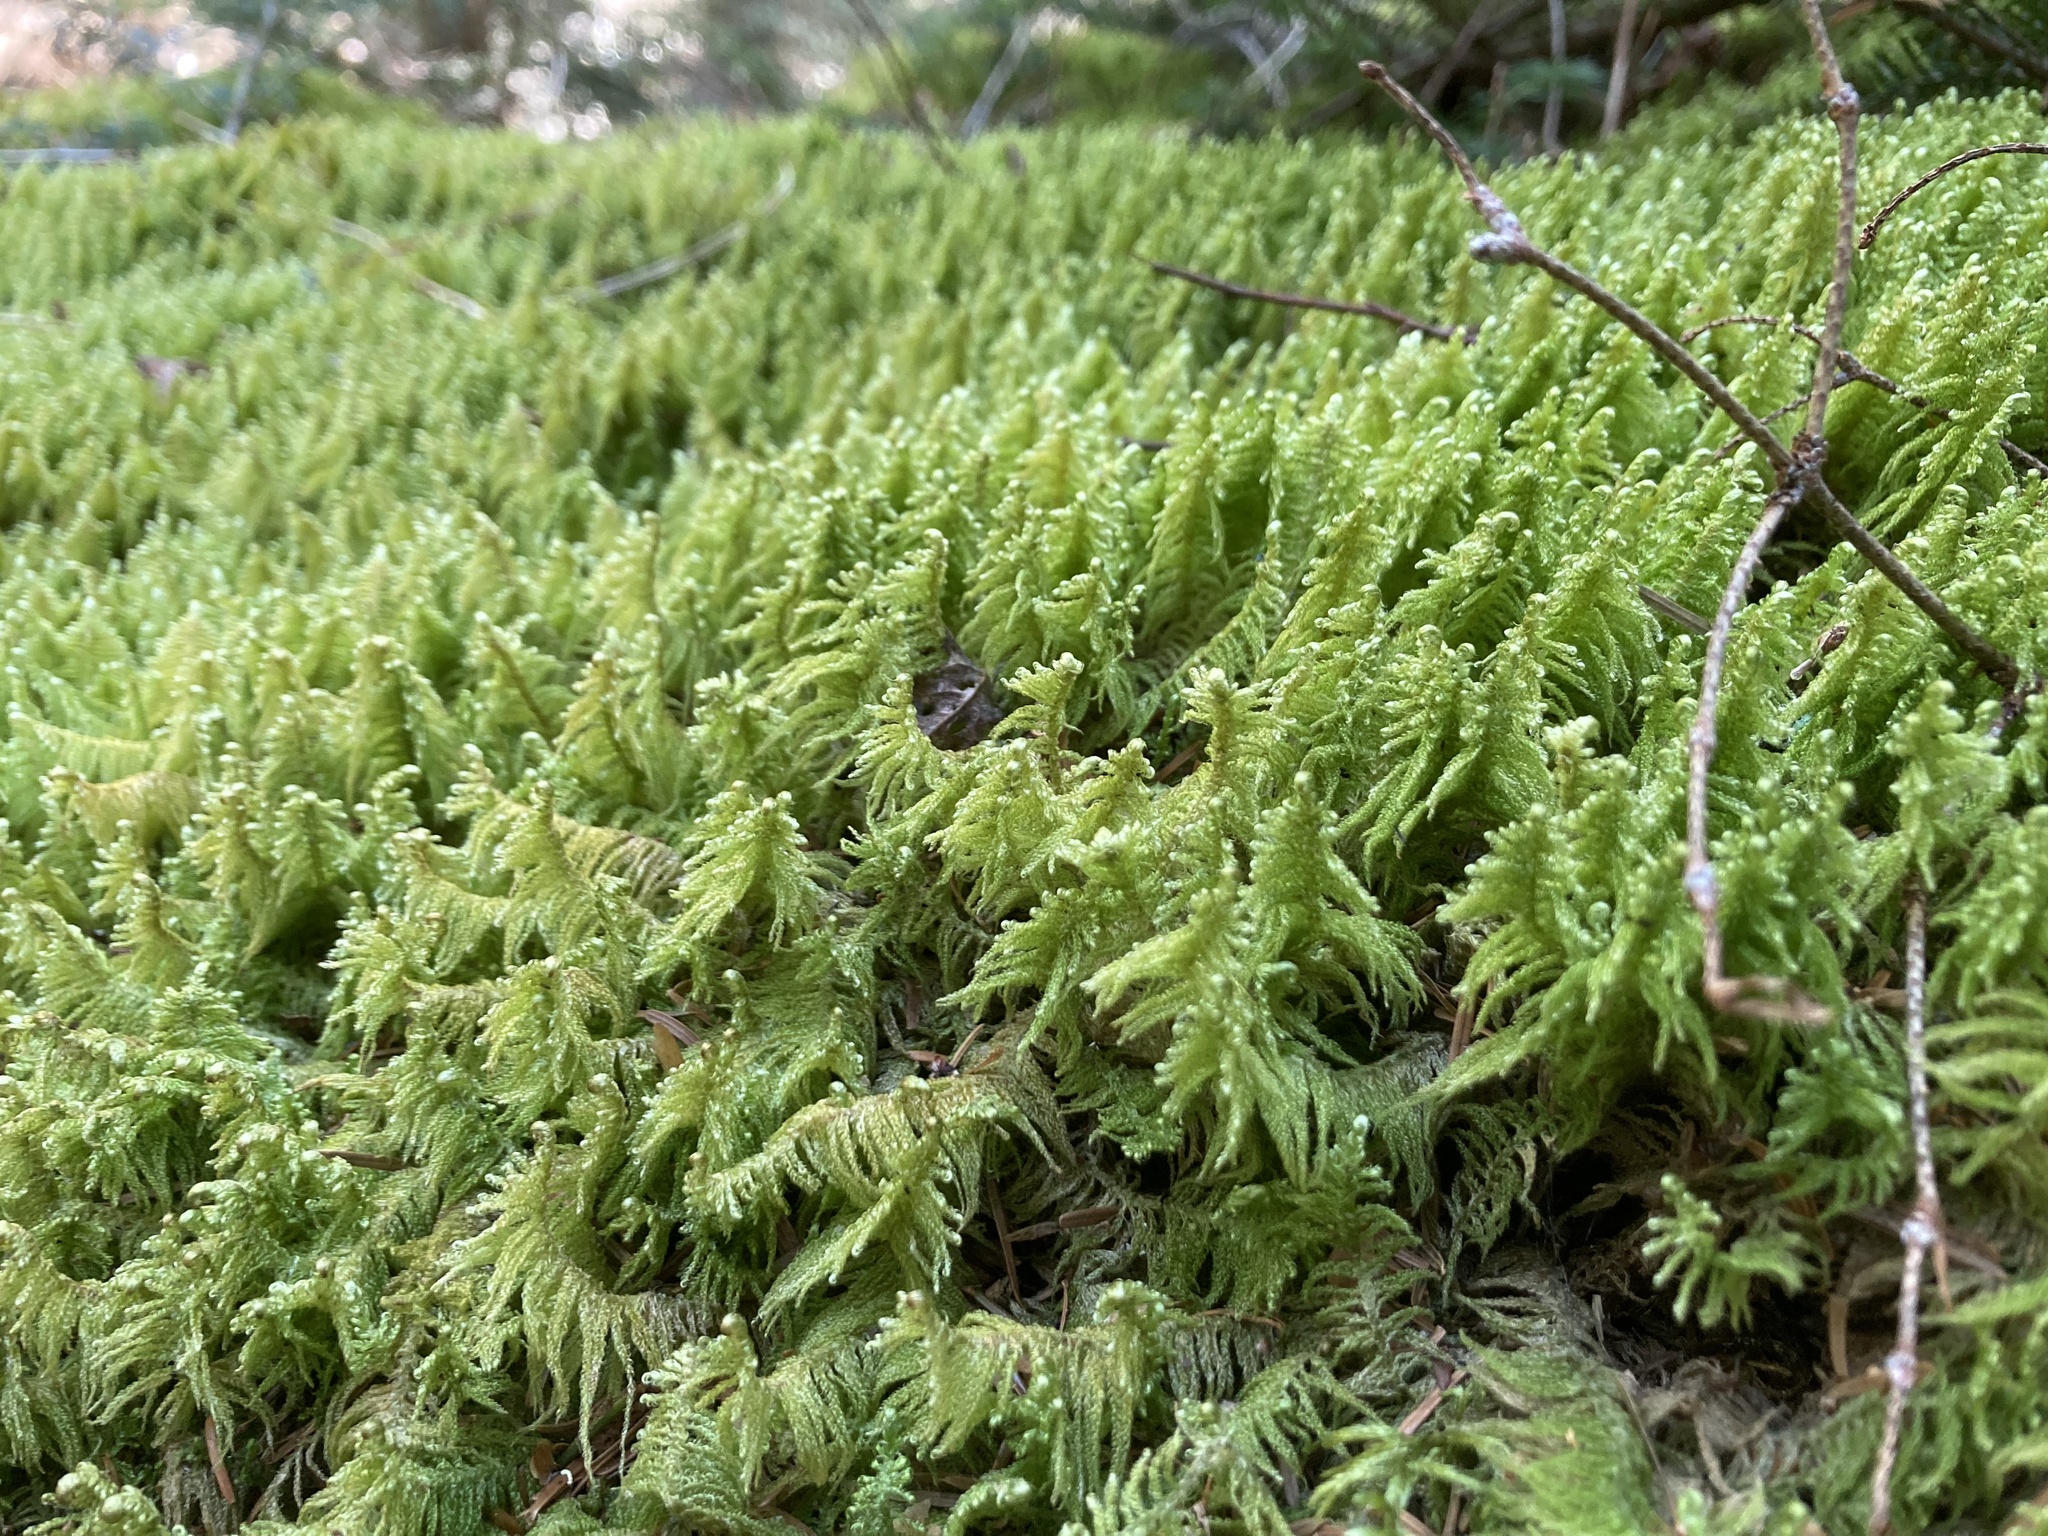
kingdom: Plantae
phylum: Bryophyta
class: Bryopsida
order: Hypnales
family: Pylaisiaceae
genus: Ptilium
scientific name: Ptilium crista-castrensis
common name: Knight's plume moss
